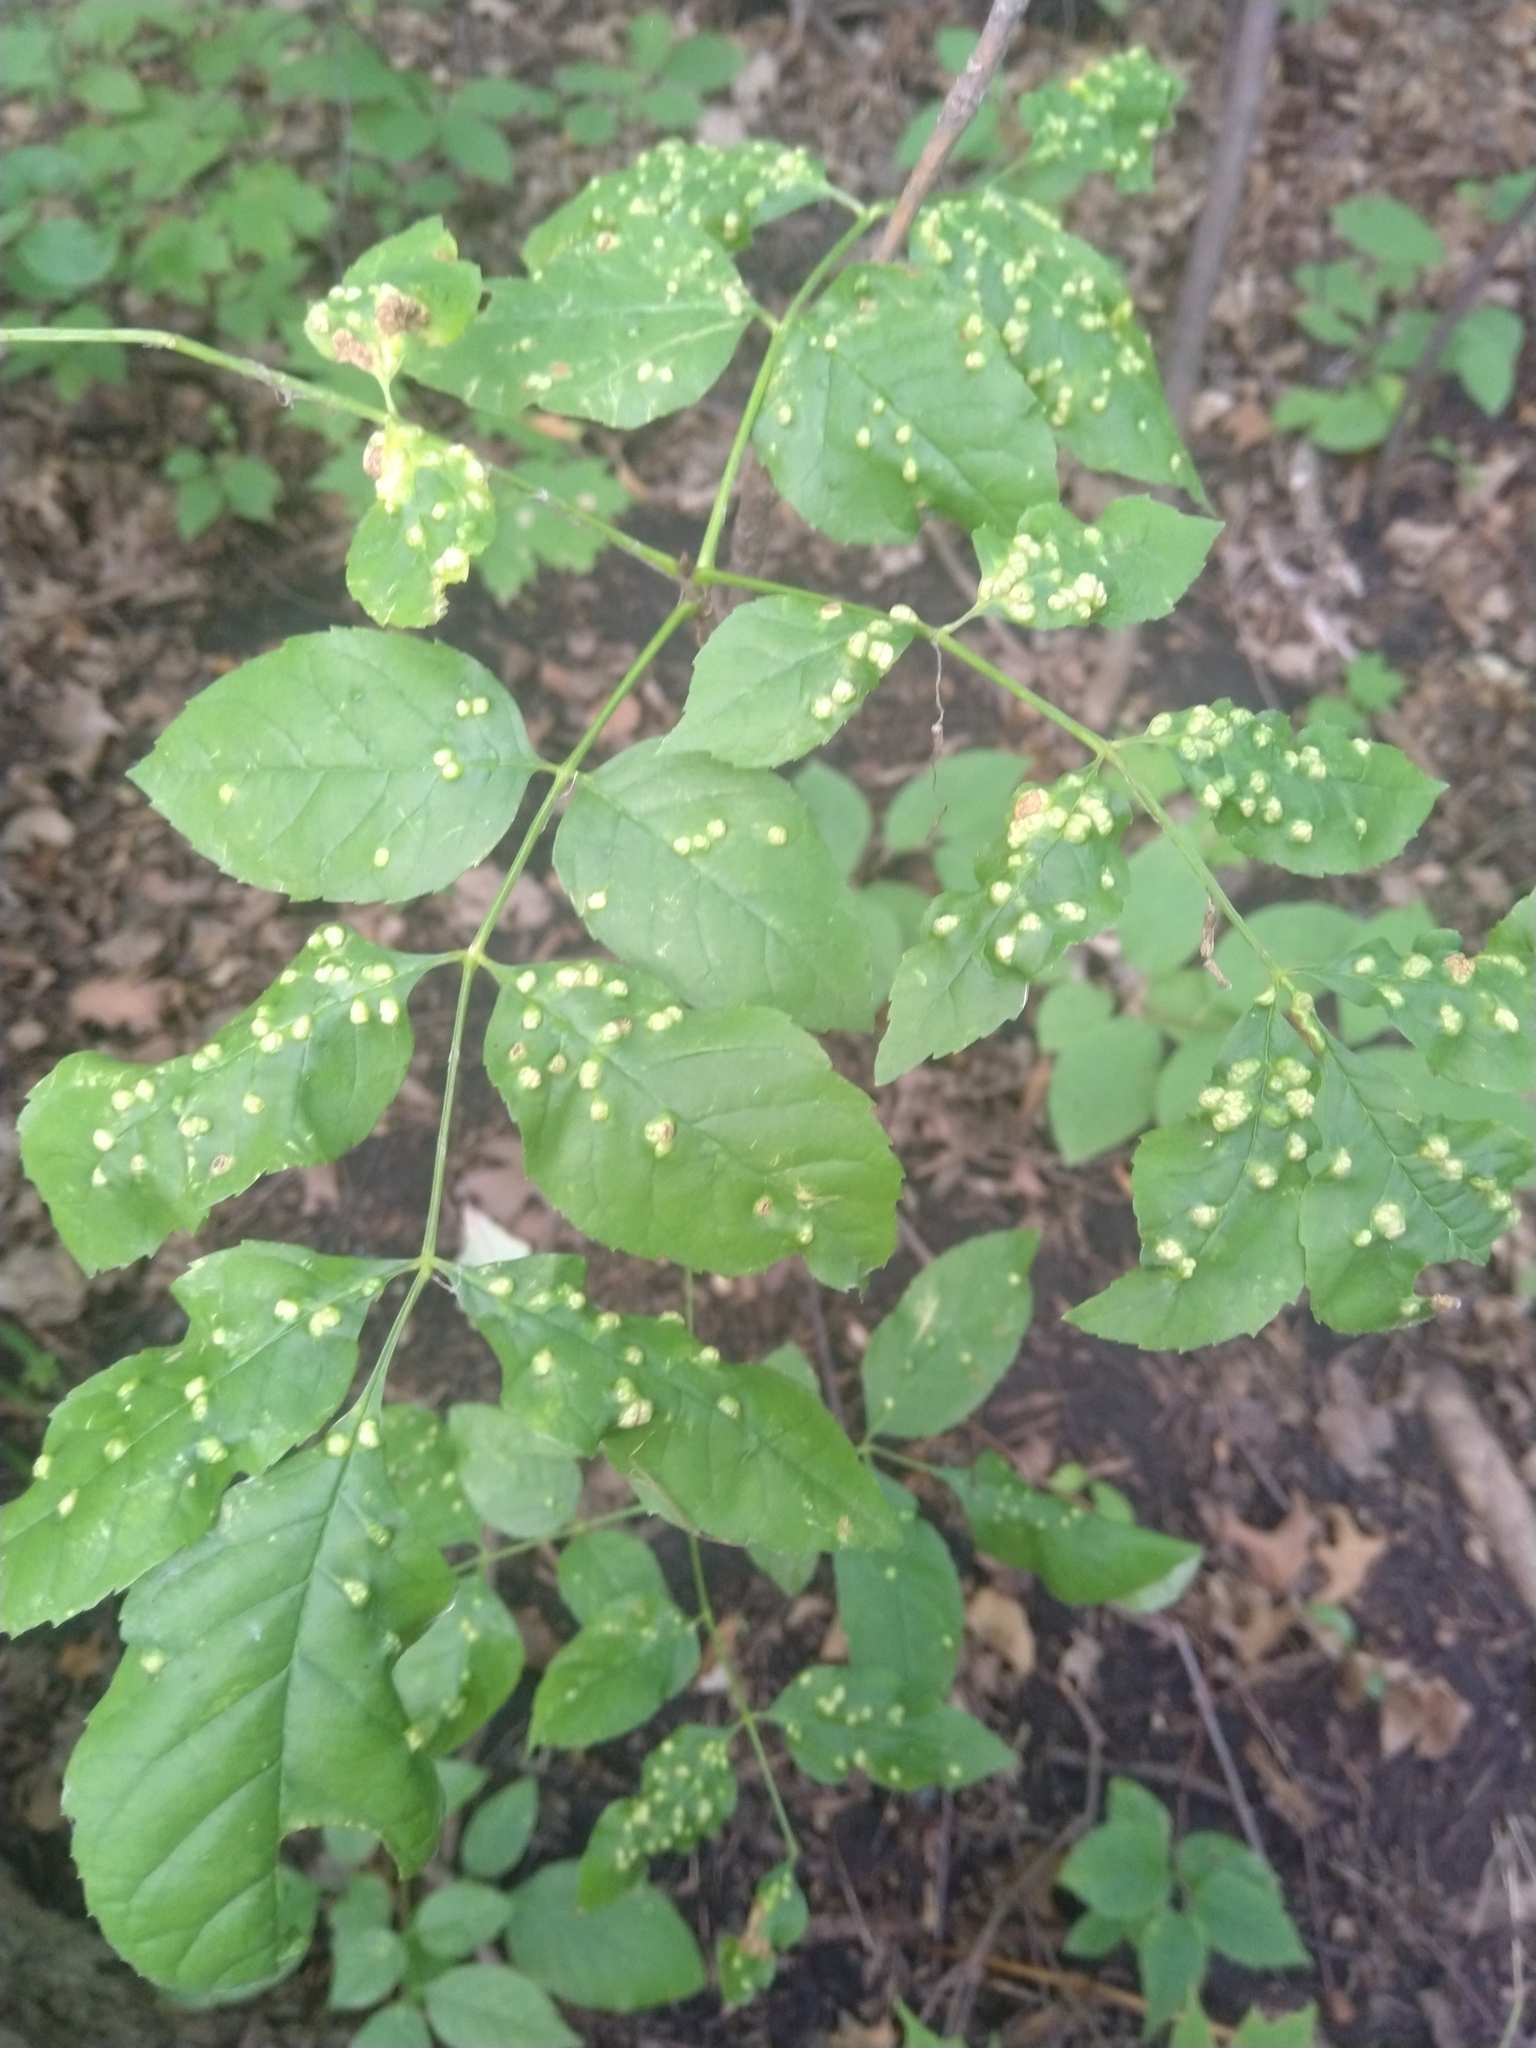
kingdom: Animalia
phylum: Arthropoda
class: Arachnida
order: Trombidiformes
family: Eriophyidae
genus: Aceria
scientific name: Aceria fraxinicola
